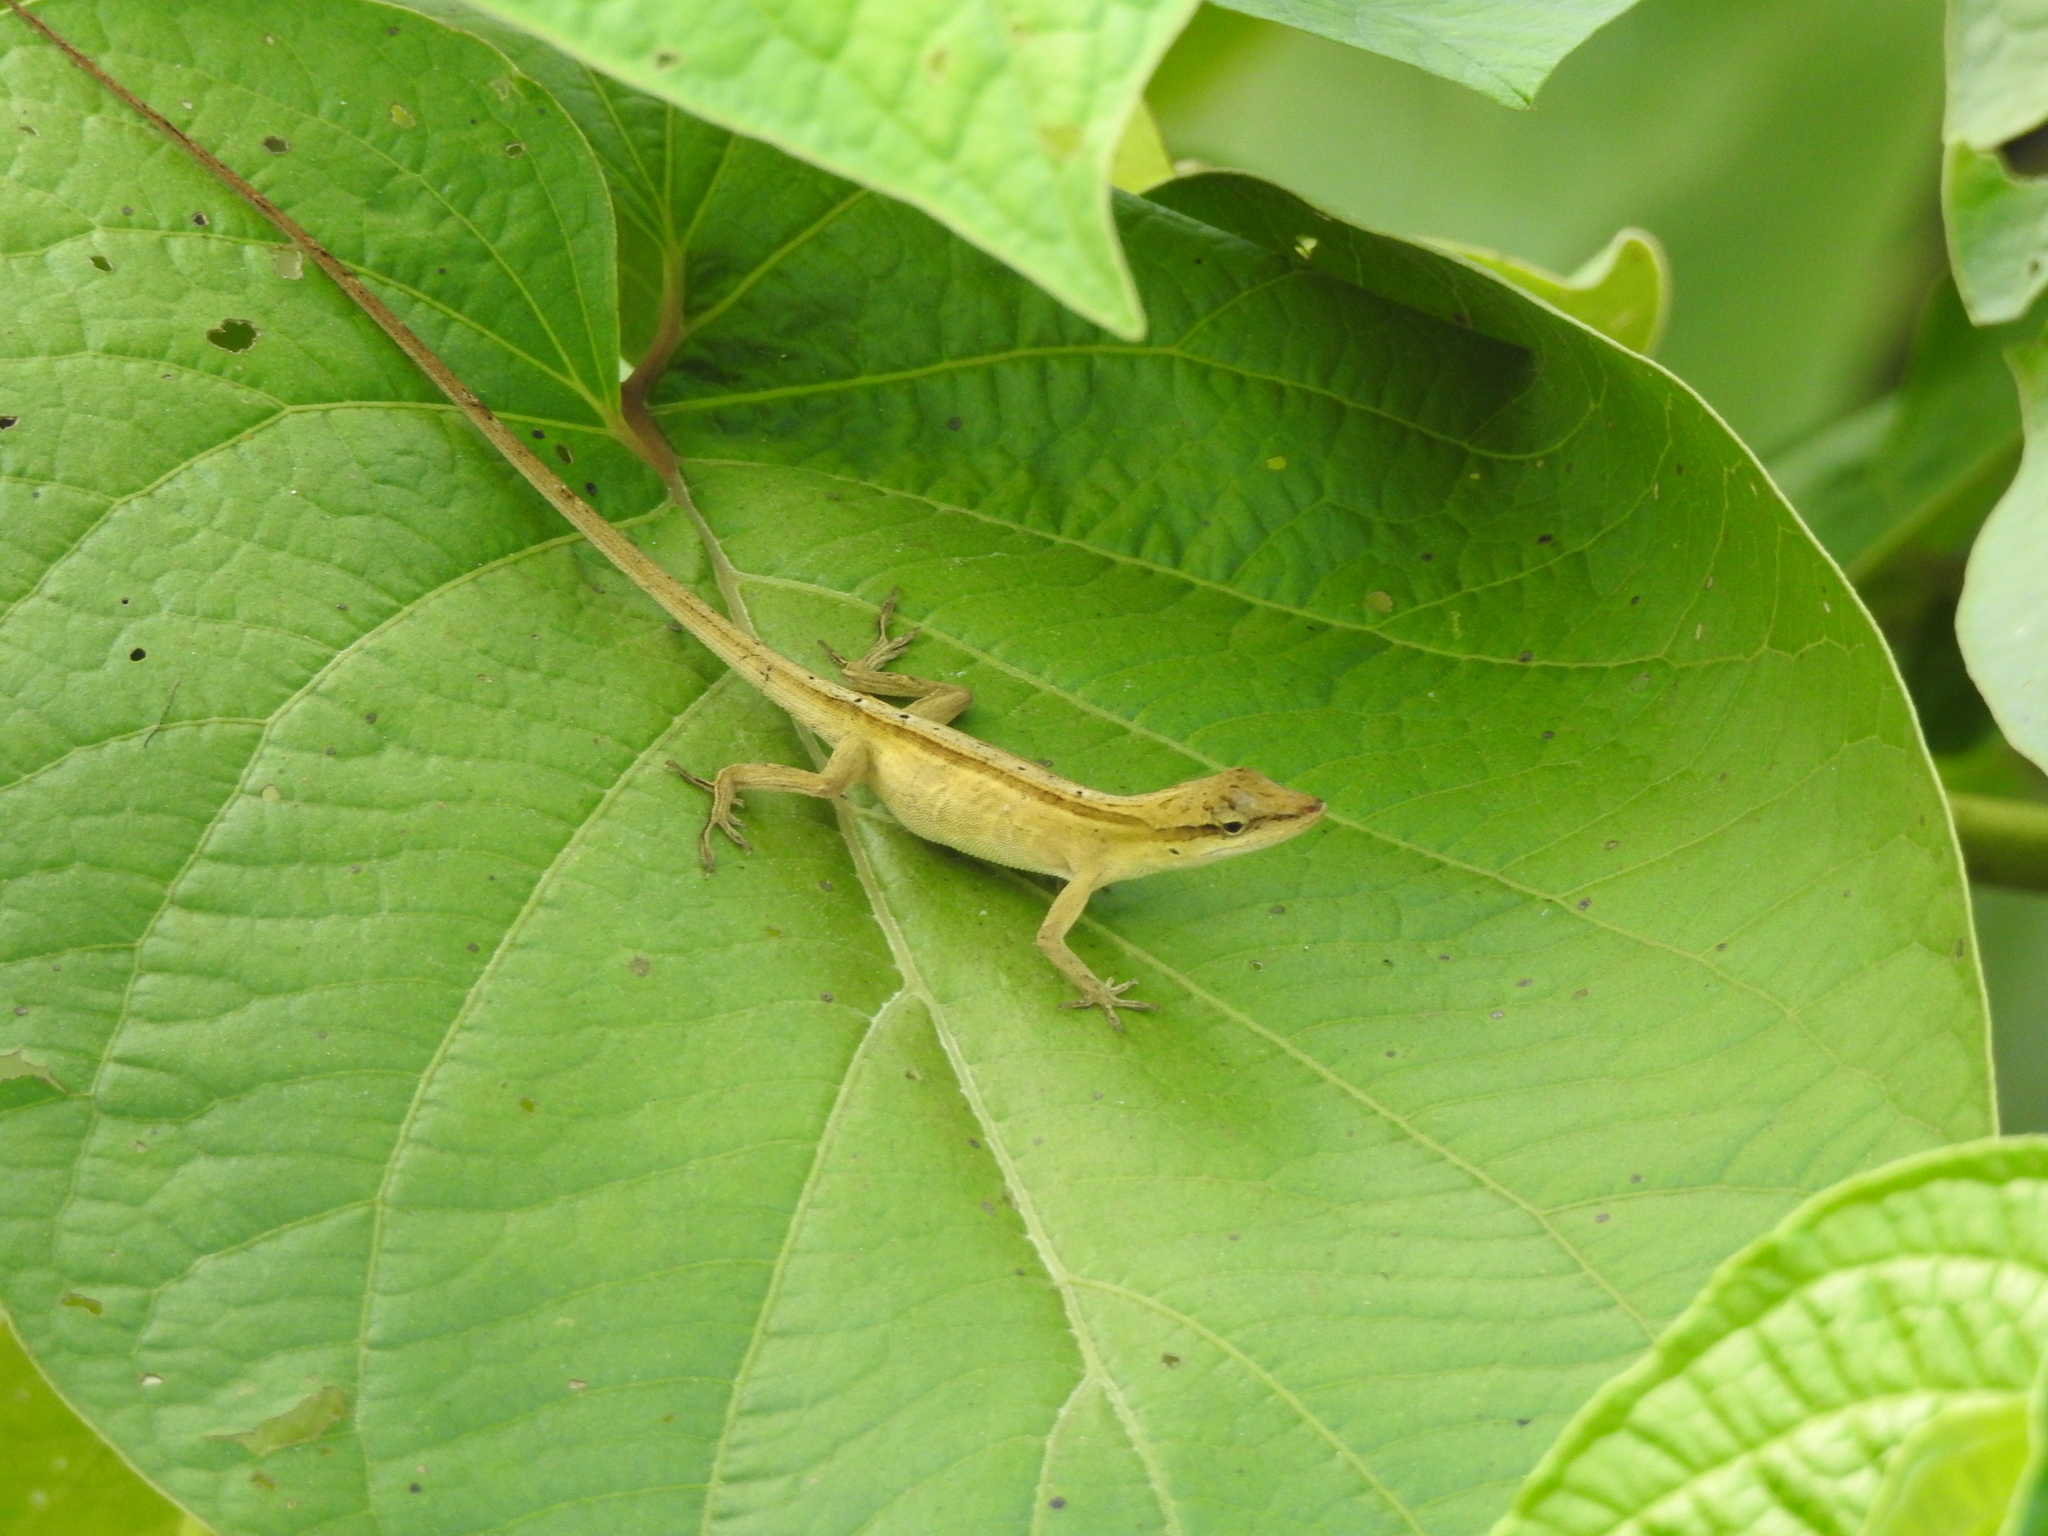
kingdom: Animalia
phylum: Chordata
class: Squamata
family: Dactyloidae
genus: Anolis
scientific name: Anolis unilobatus
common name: Blue-spotted fan anole
